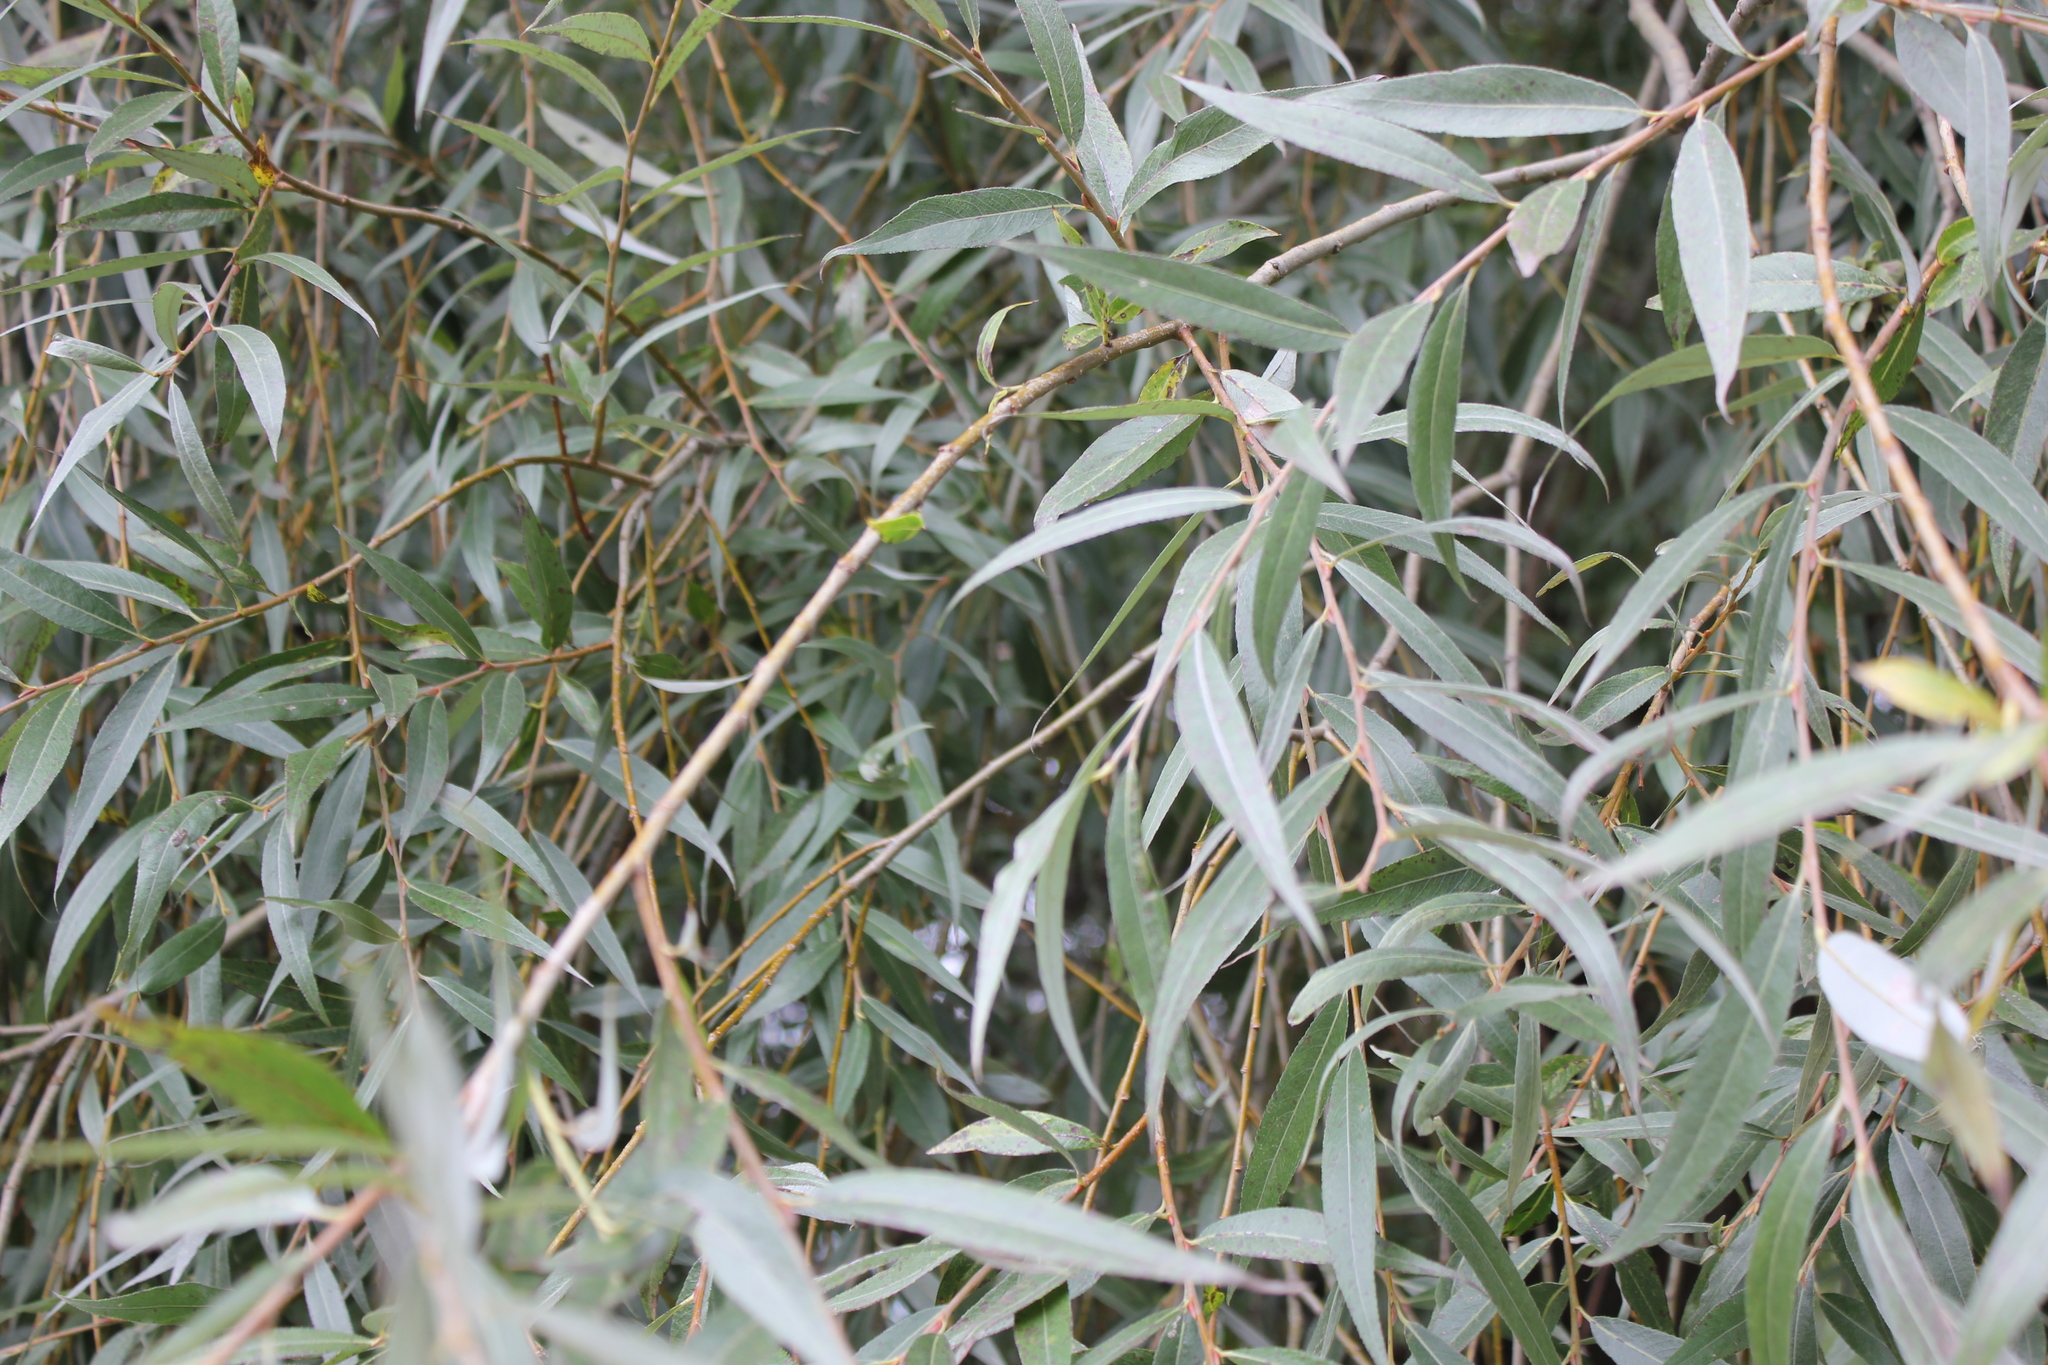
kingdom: Plantae
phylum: Tracheophyta
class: Magnoliopsida
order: Malpighiales
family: Salicaceae
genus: Salix
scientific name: Salix alba
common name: White willow
